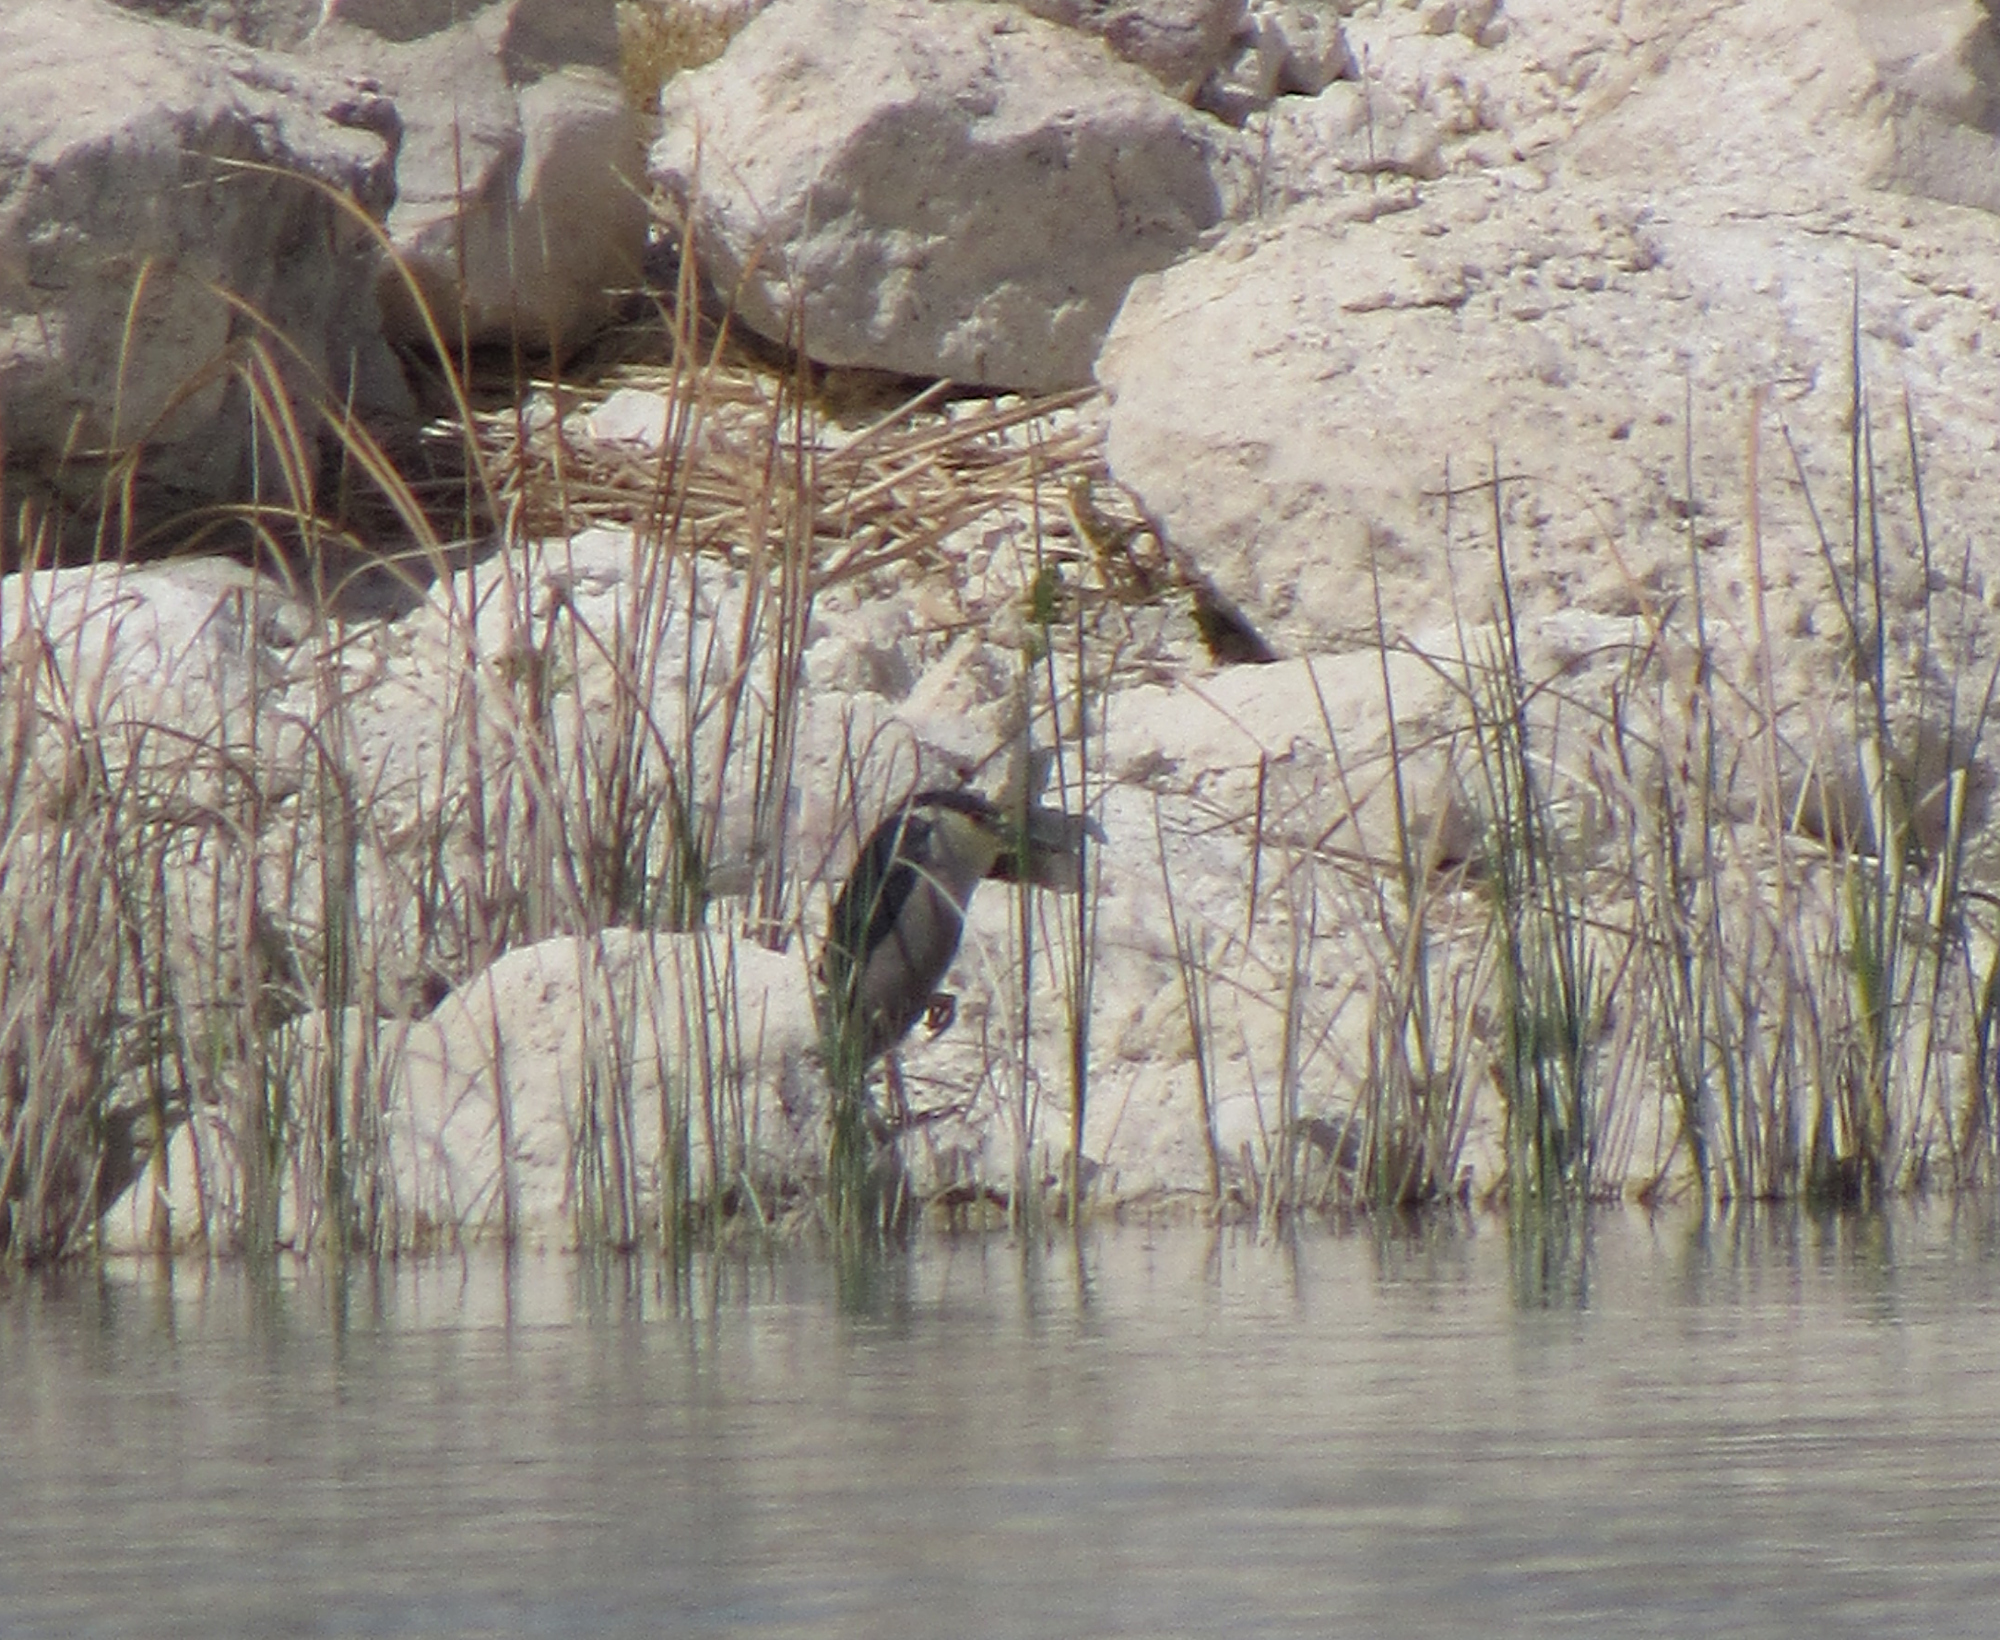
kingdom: Animalia
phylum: Chordata
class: Aves
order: Pelecaniformes
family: Ardeidae
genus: Nycticorax
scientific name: Nycticorax nycticorax
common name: Black-crowned night heron
